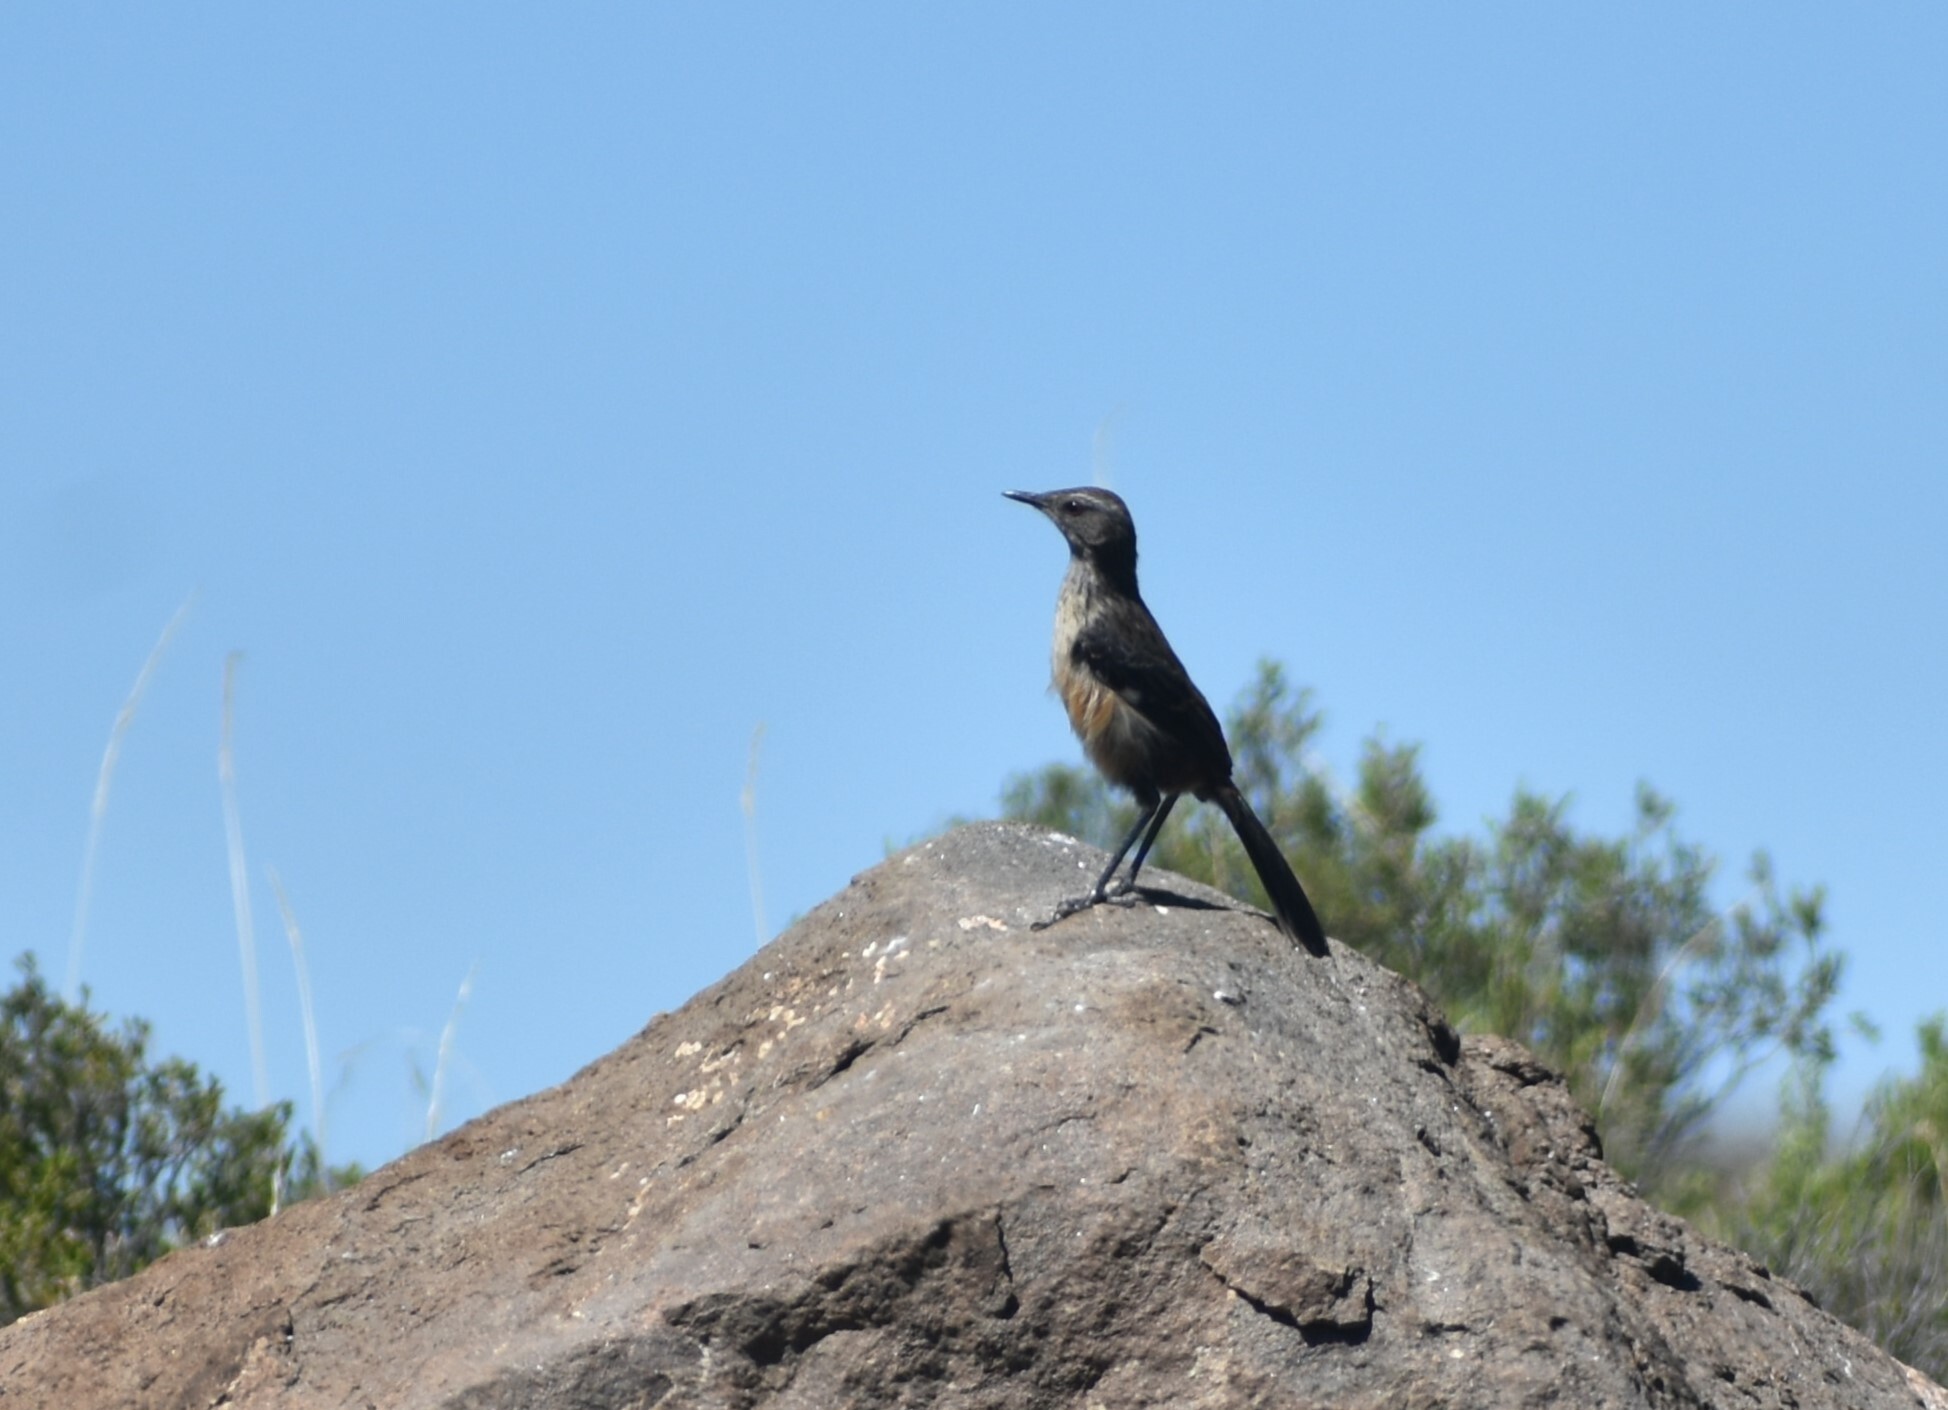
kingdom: Animalia
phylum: Chordata
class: Aves
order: Passeriformes
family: Chaetopidae
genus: Chaetops
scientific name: Chaetops aurantius
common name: Drakensberg rockjumper
